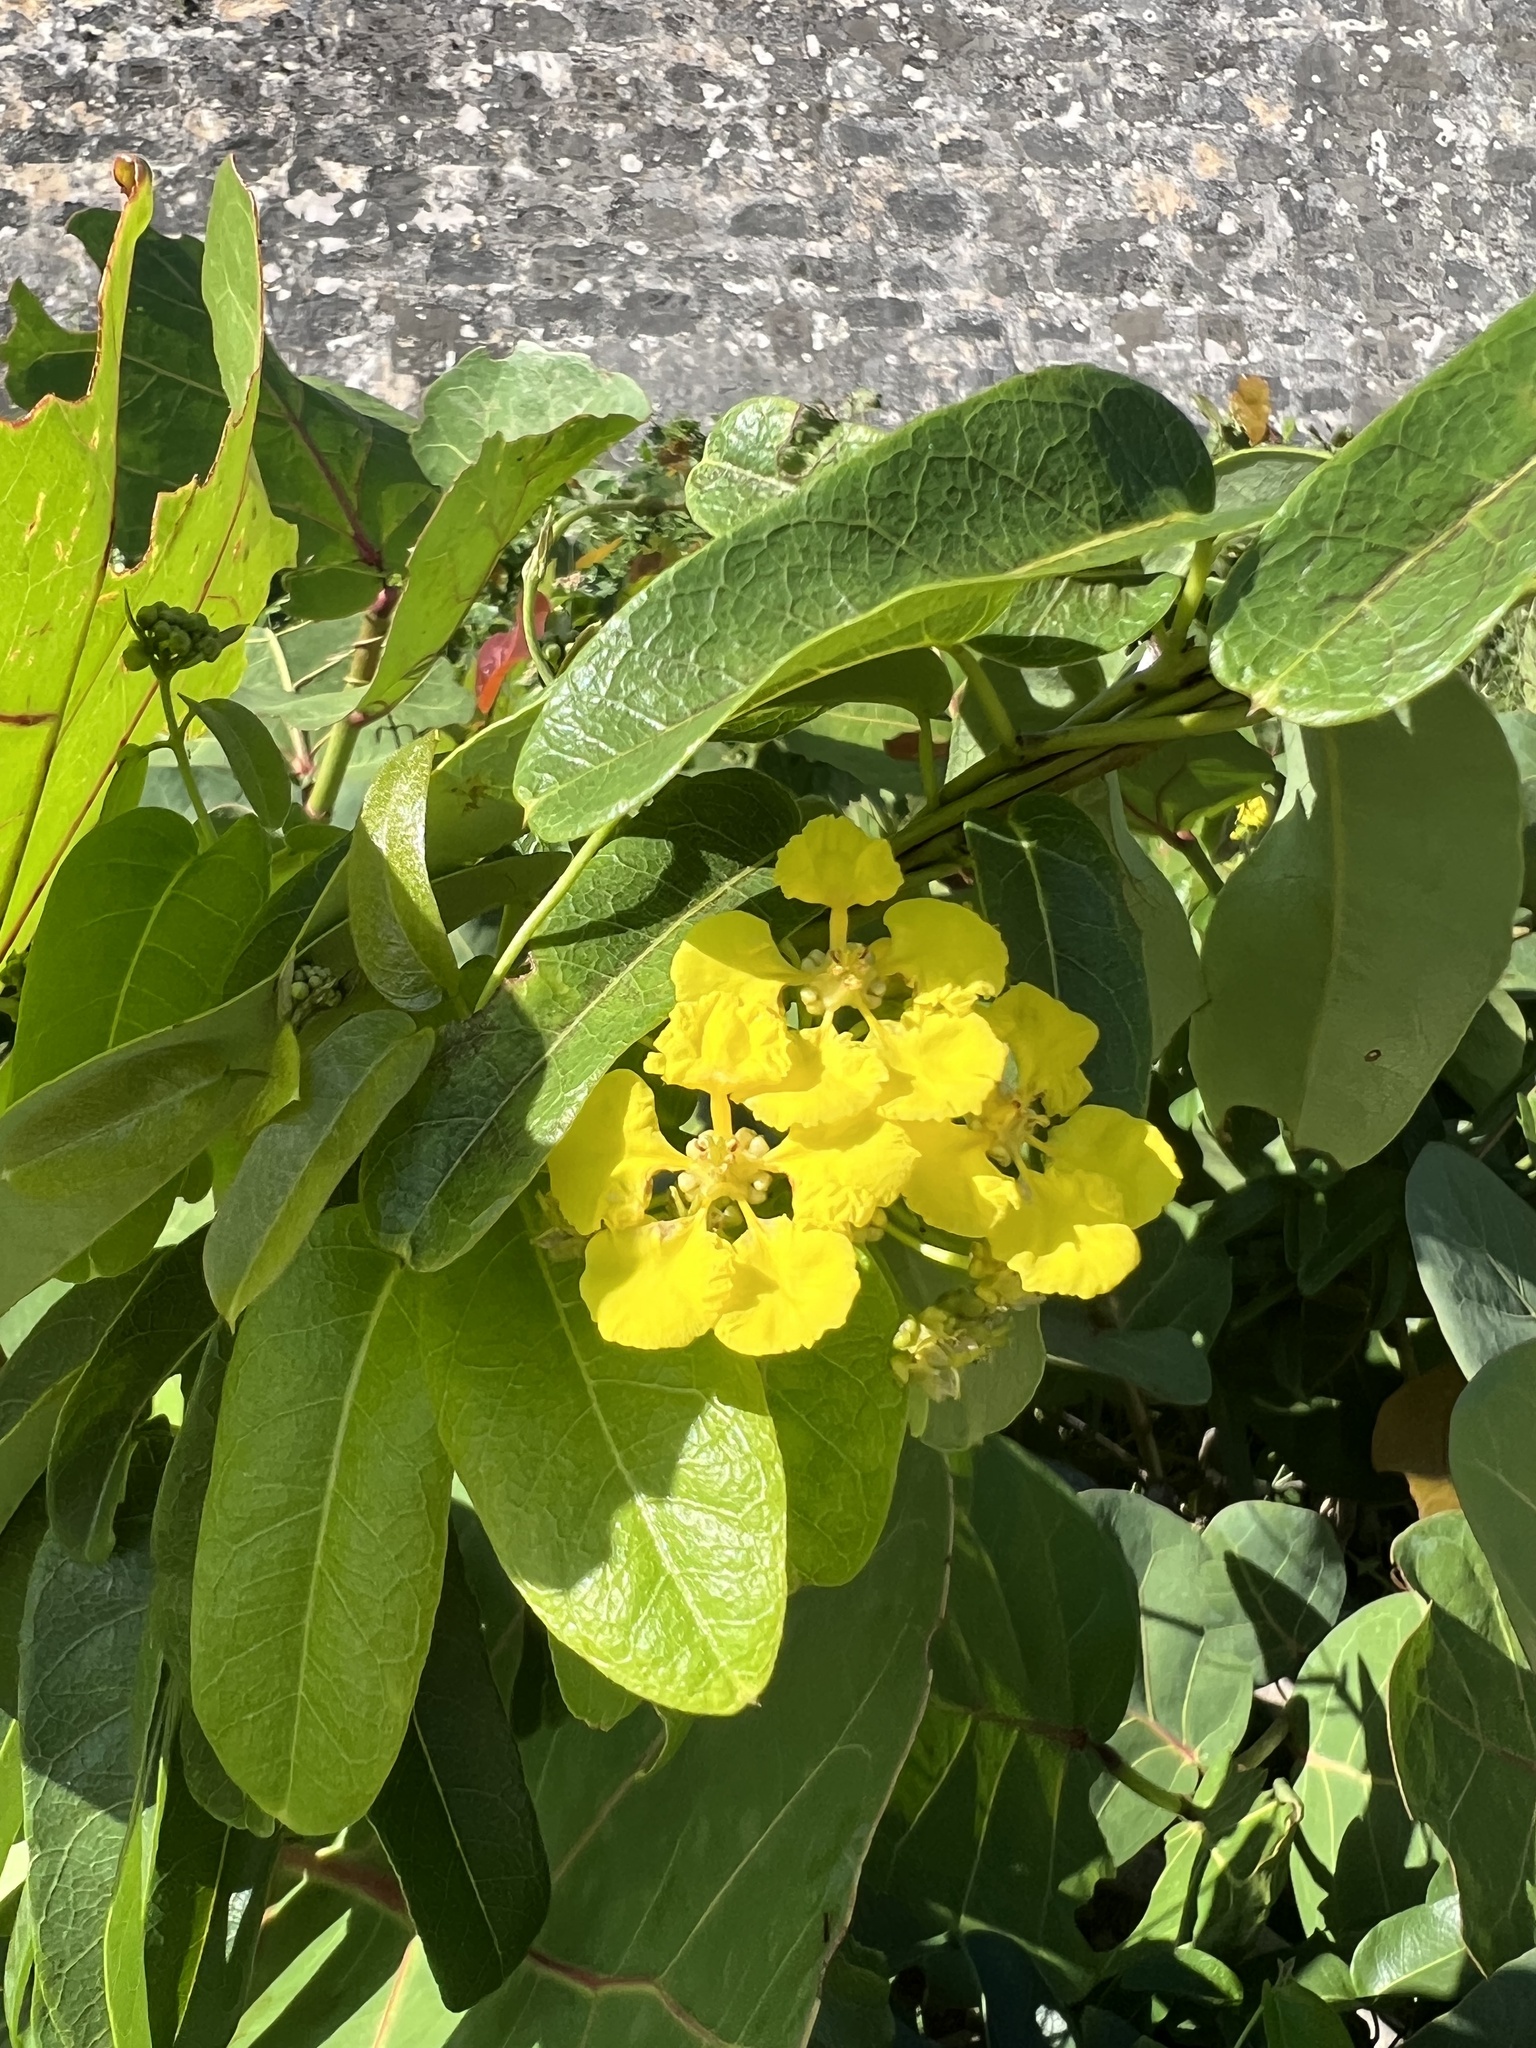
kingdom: Plantae
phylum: Tracheophyta
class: Magnoliopsida
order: Malpighiales
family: Malpighiaceae
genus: Stigmaphyllon
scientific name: Stigmaphyllon emarginatum
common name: Monarch amazonvine
